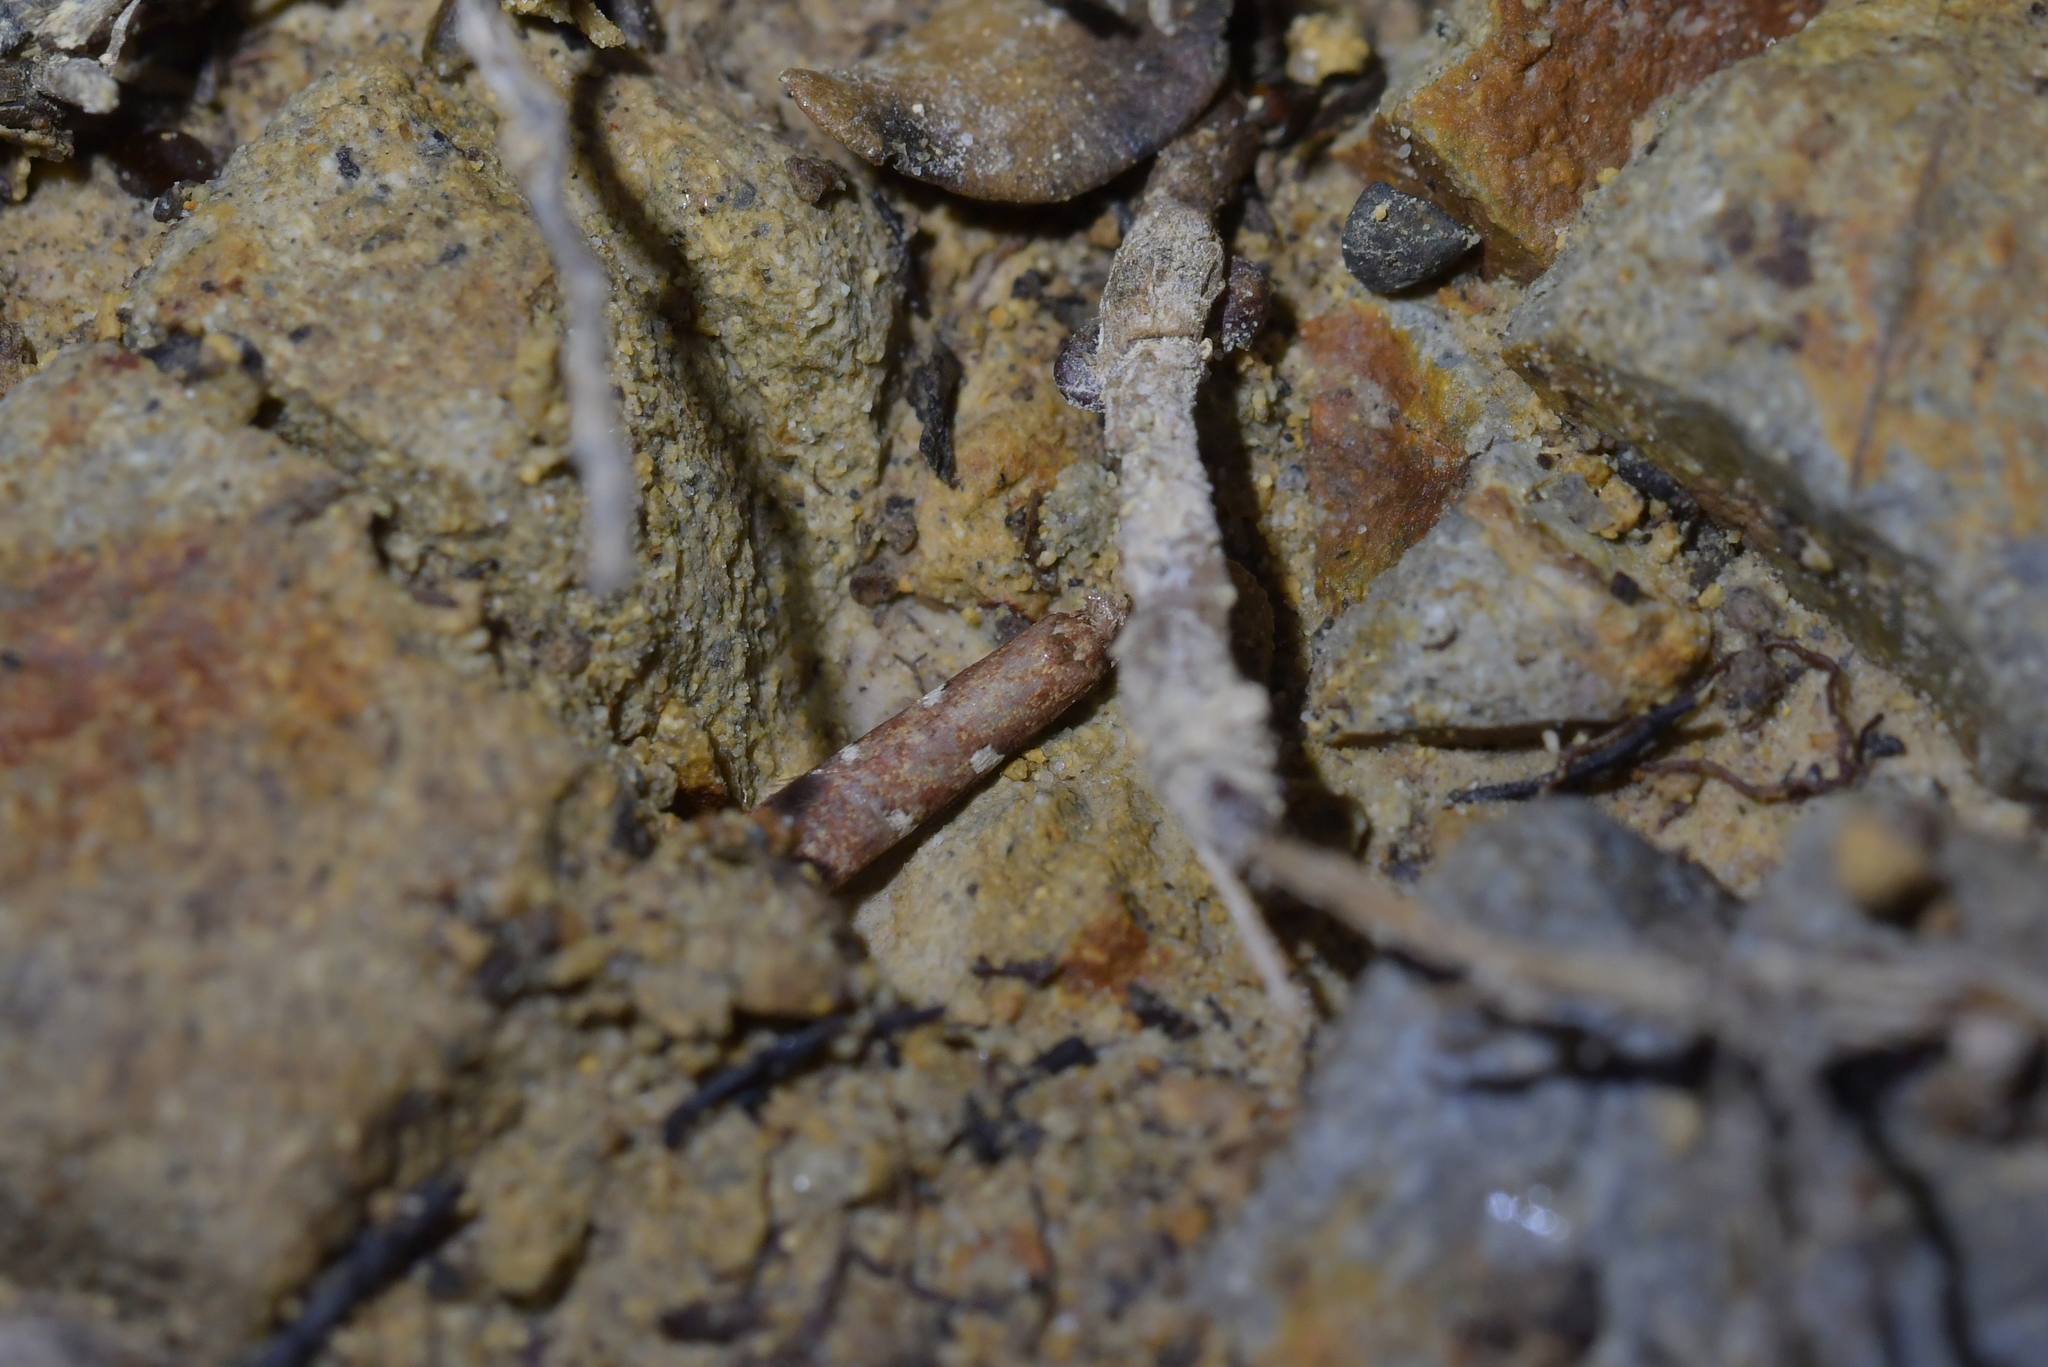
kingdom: Animalia
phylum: Arthropoda
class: Insecta
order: Lepidoptera
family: Plutellidae
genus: Cadmogenes
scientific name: Cadmogenes literata
